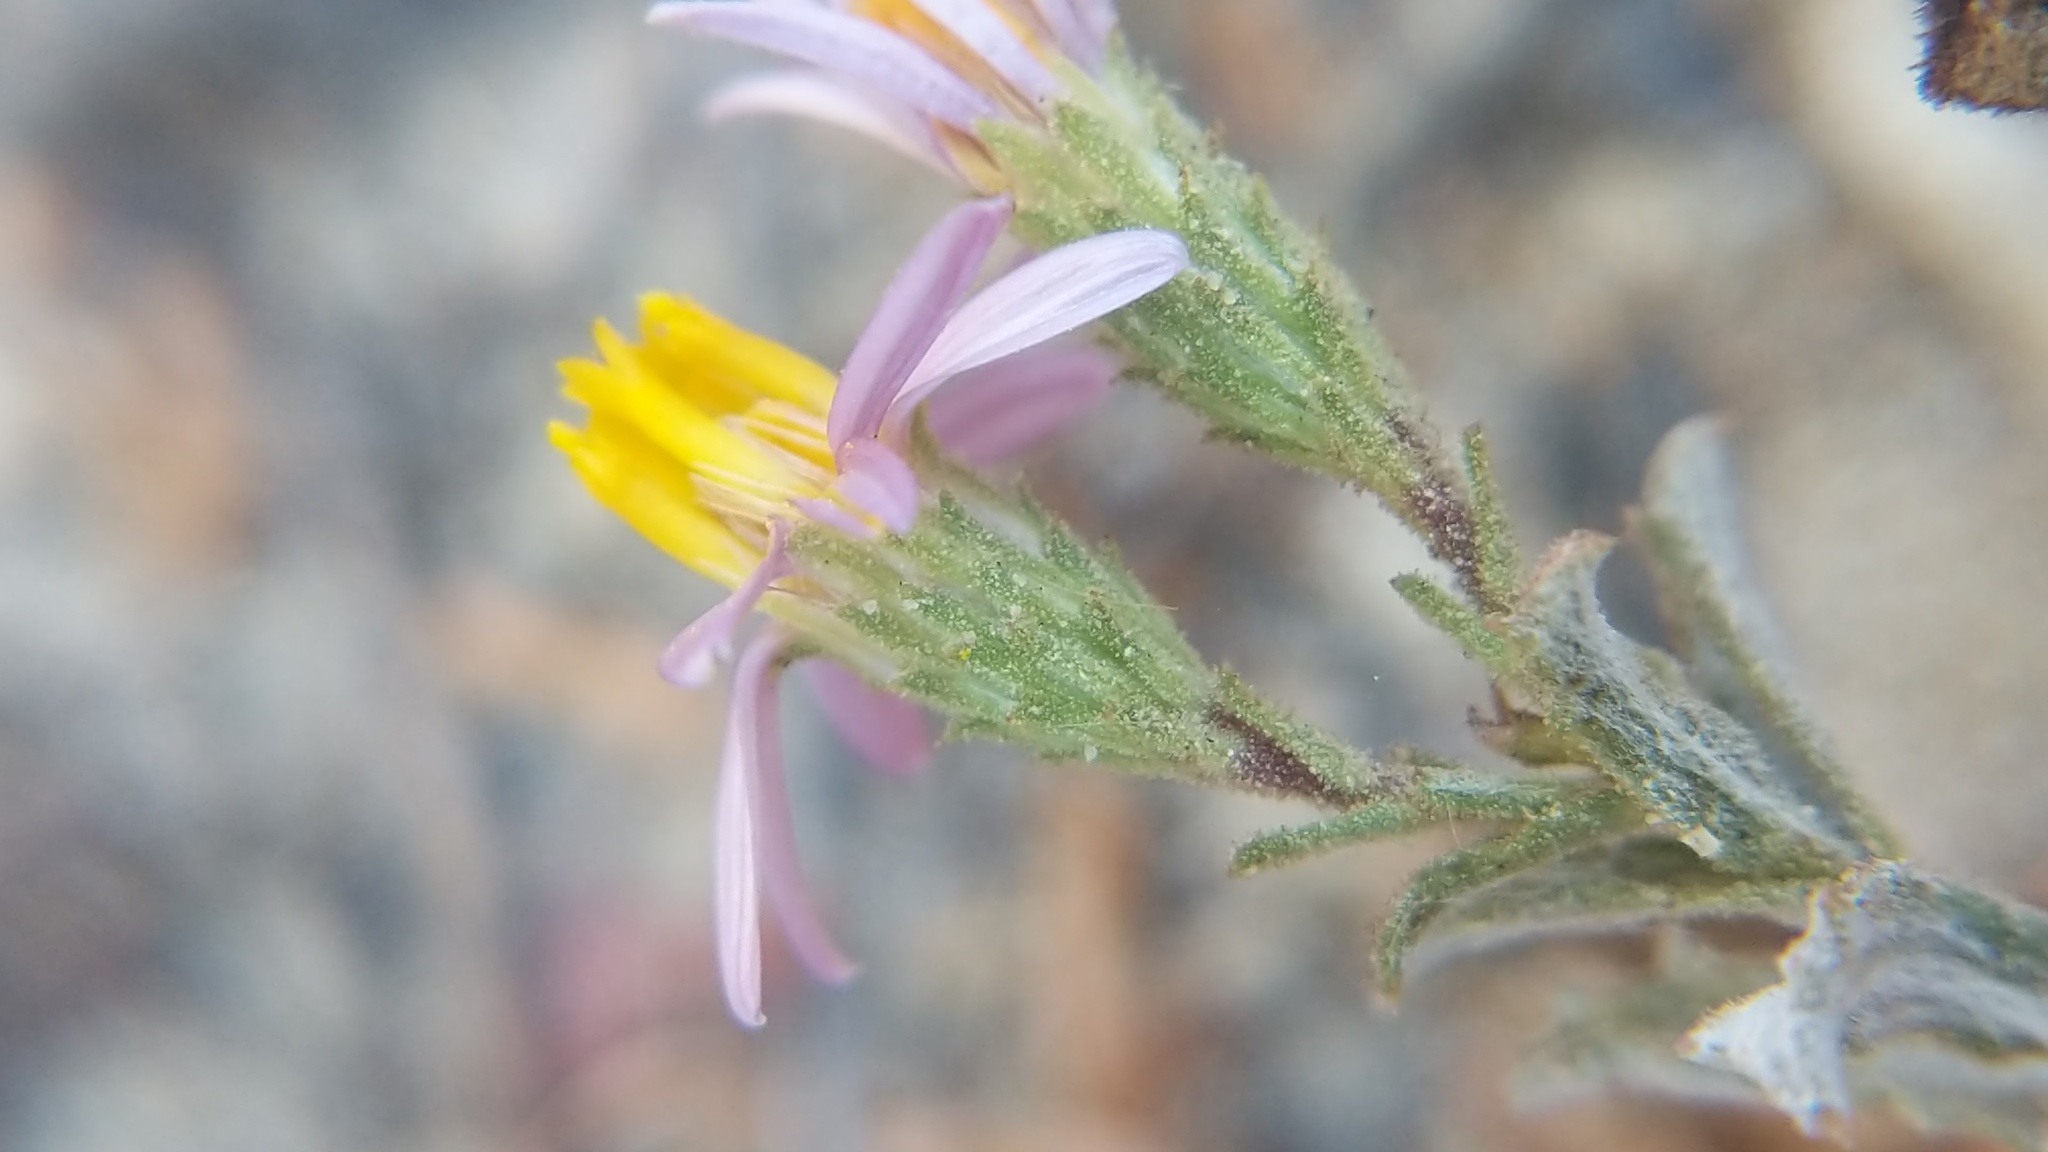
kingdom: Plantae
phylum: Tracheophyta
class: Magnoliopsida
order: Asterales
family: Asteraceae
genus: Corethrogyne
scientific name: Corethrogyne filaginifolia
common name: Sand-aster
